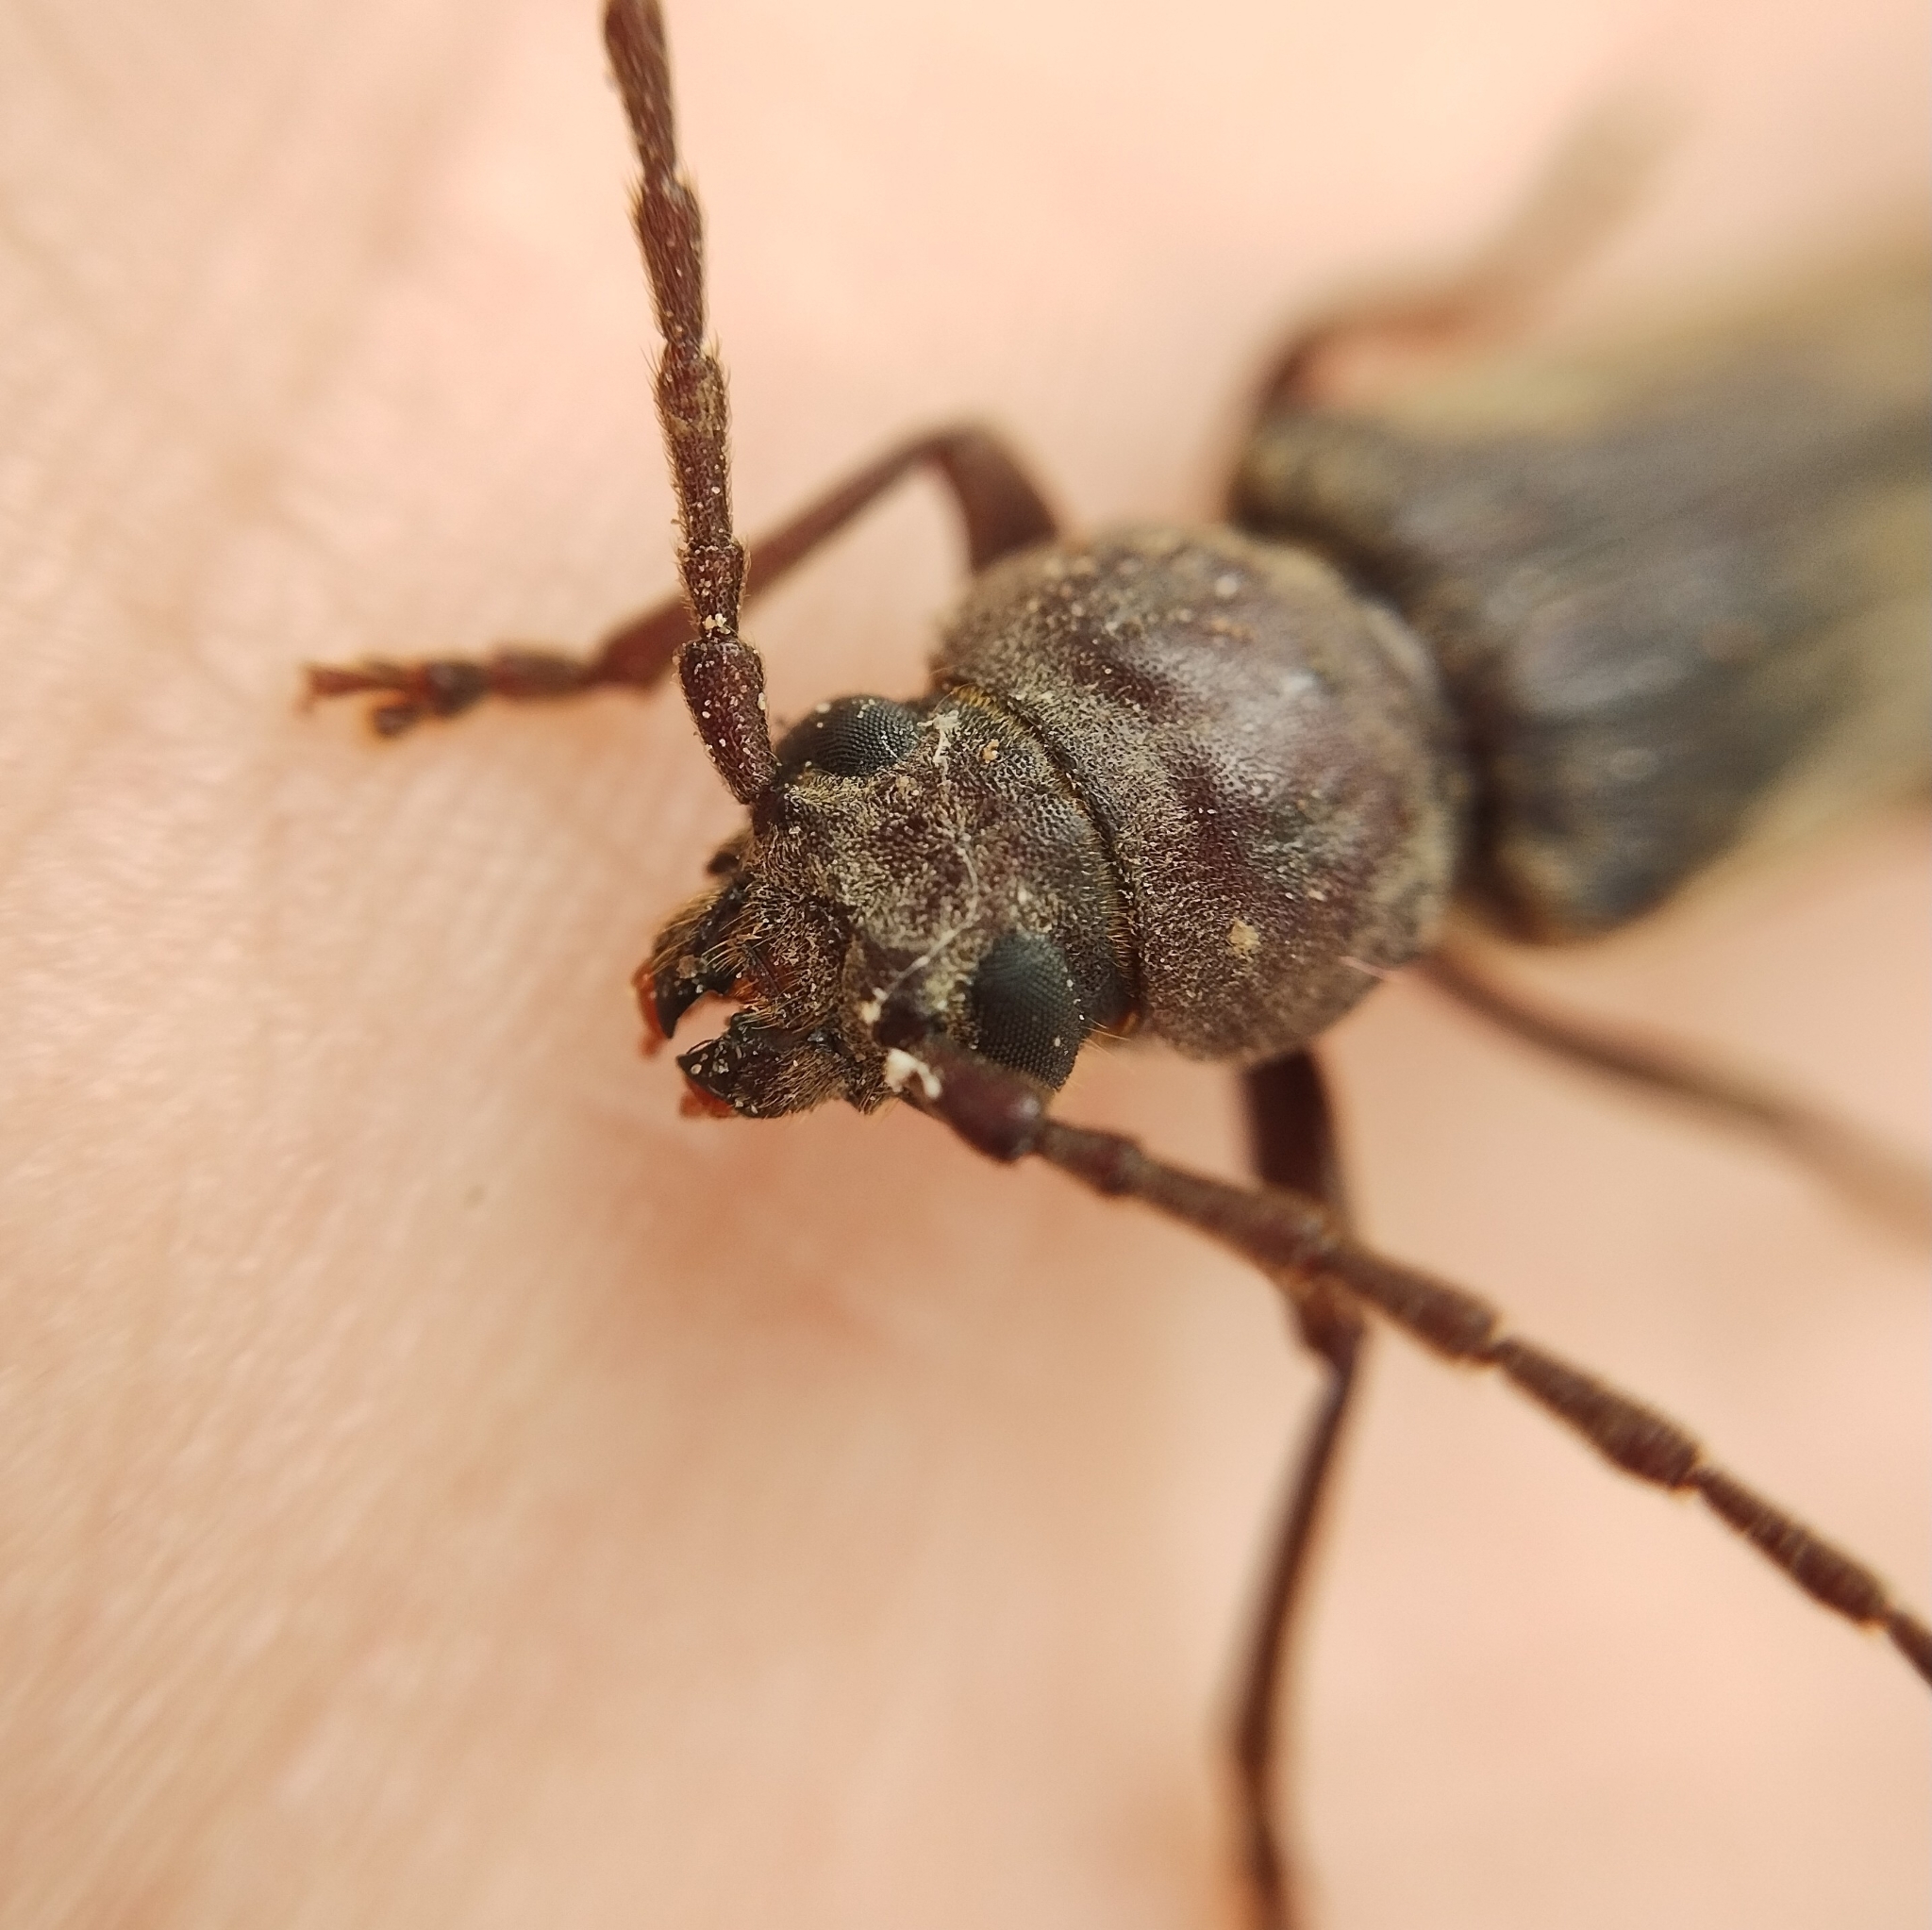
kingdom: Animalia
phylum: Arthropoda
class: Insecta
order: Coleoptera
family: Cerambycidae
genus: Arhopalus
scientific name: Arhopalus rusticus
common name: Rust pine borer
